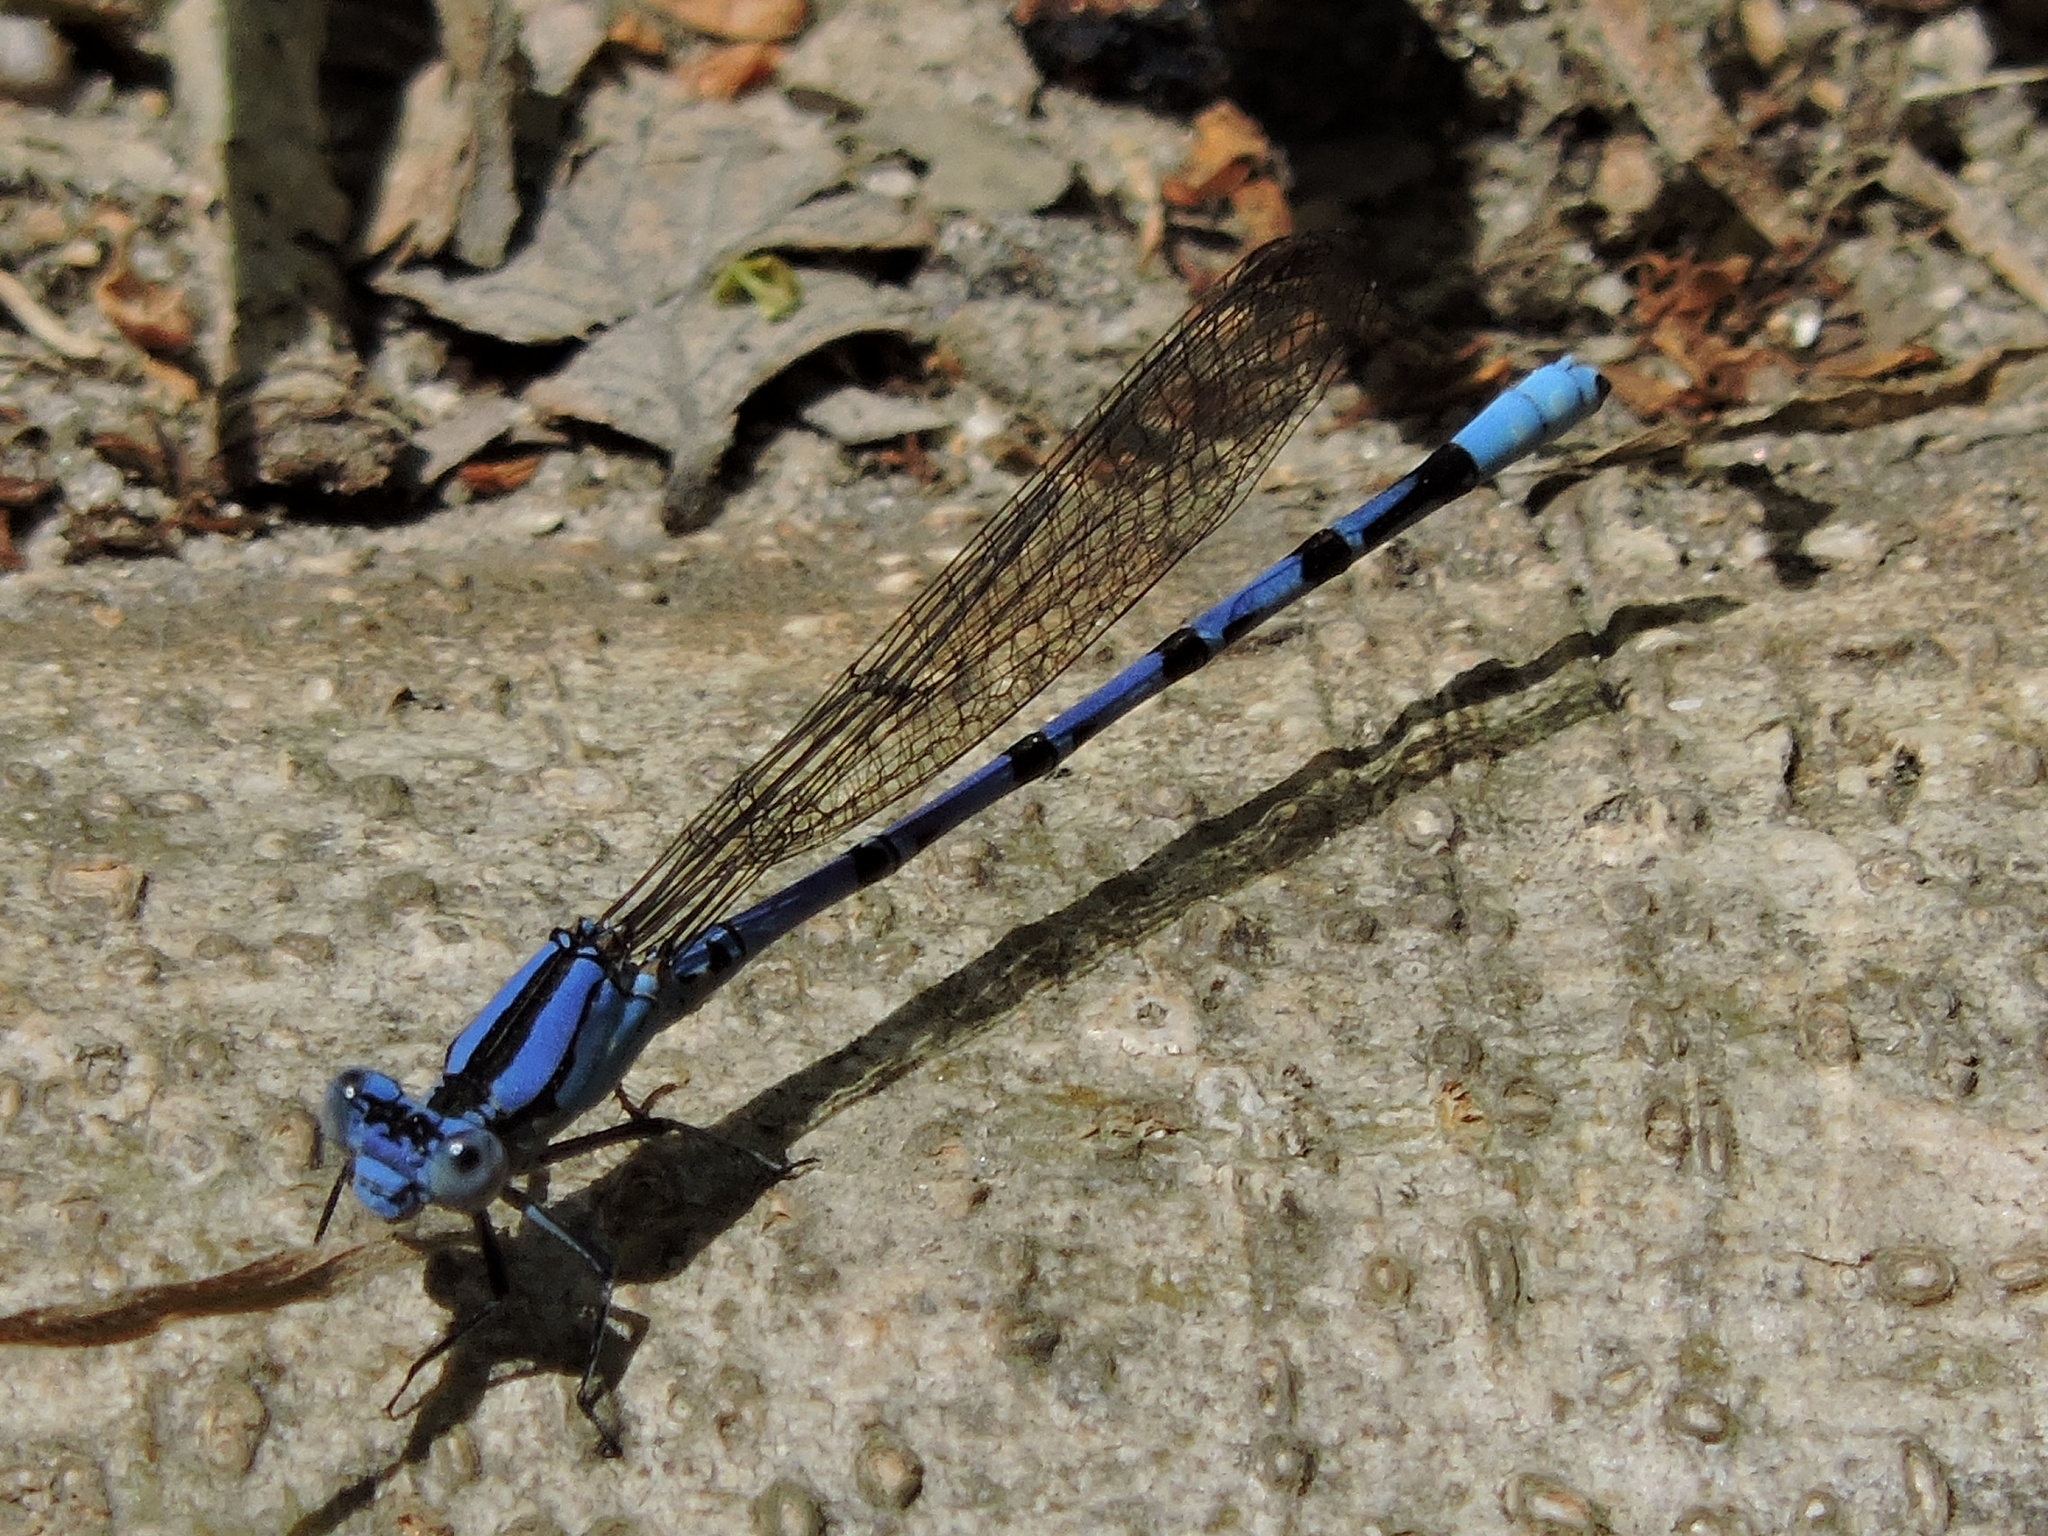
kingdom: Animalia
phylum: Arthropoda
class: Insecta
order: Odonata
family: Coenagrionidae
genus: Argia
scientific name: Argia funebris
